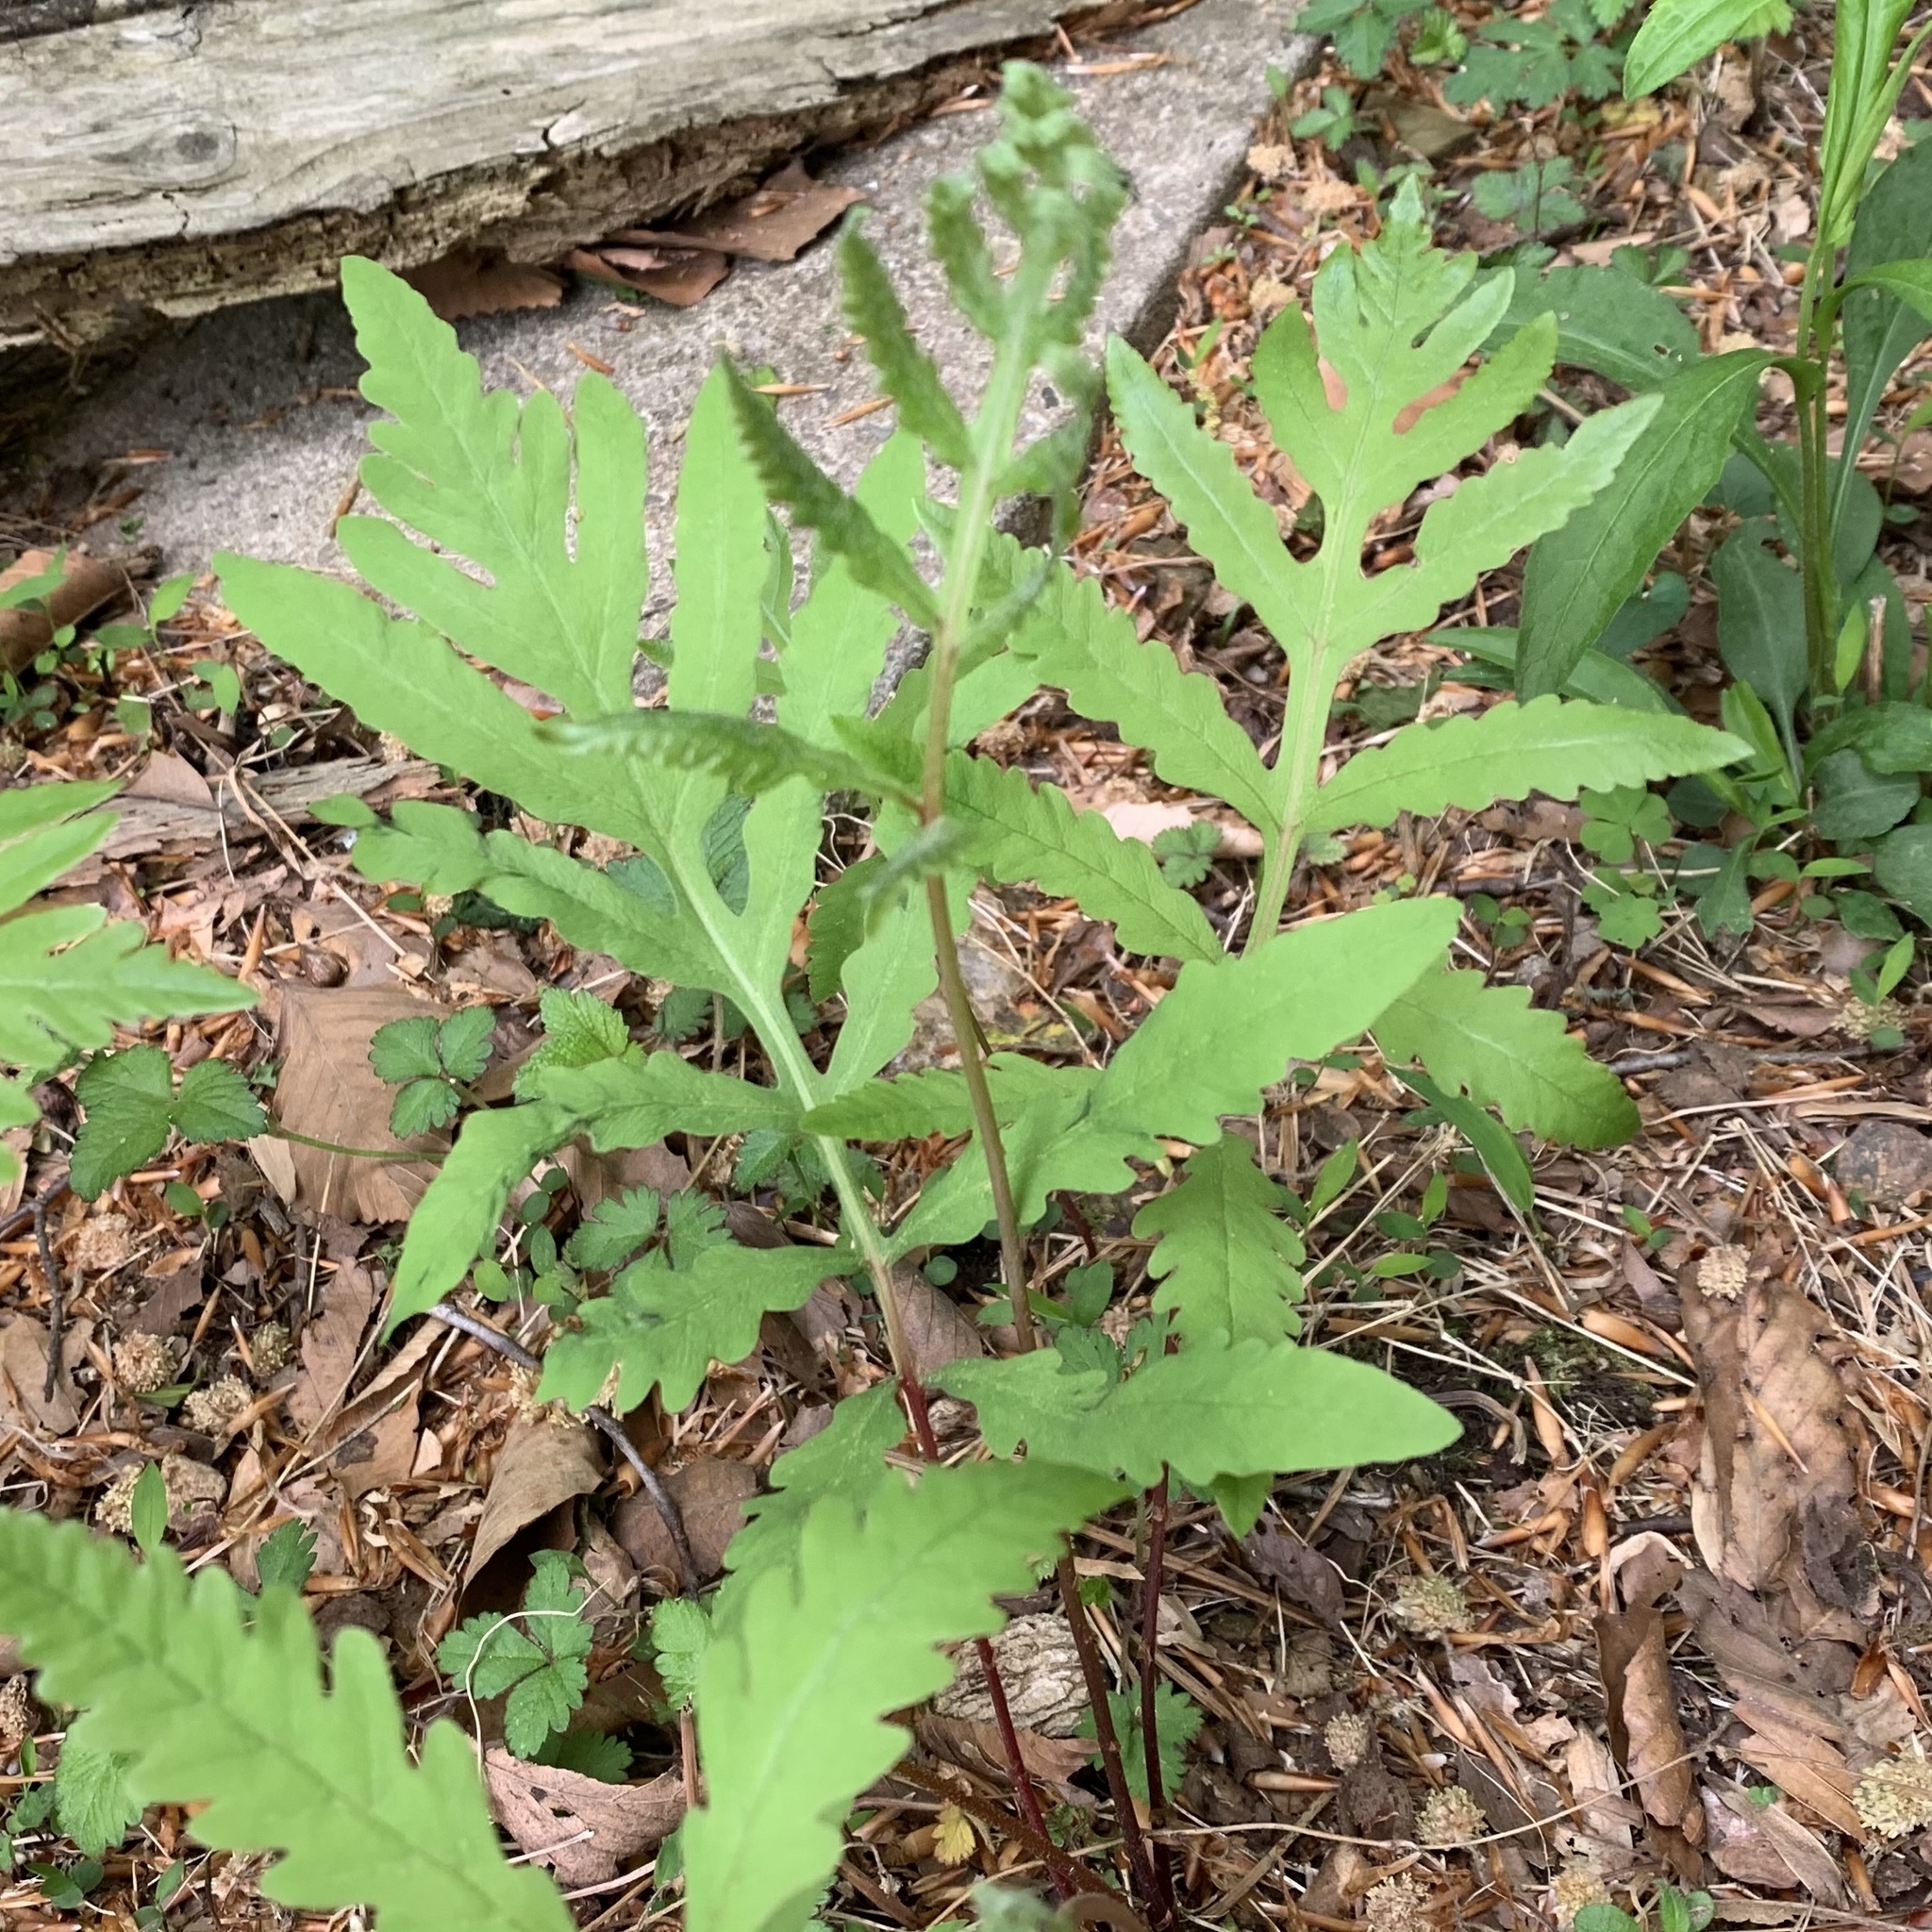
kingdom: Plantae
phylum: Tracheophyta
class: Polypodiopsida
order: Polypodiales
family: Onocleaceae
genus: Onoclea
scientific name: Onoclea sensibilis
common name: Sensitive fern
